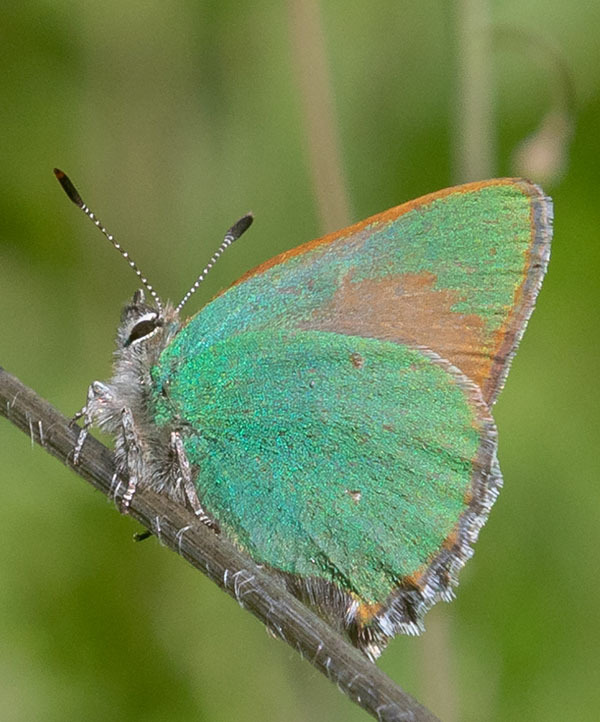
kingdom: Animalia
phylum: Arthropoda
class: Insecta
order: Lepidoptera
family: Lycaenidae
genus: Callophrys
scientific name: Callophrys dumetorum
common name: Bramble hairstreak
